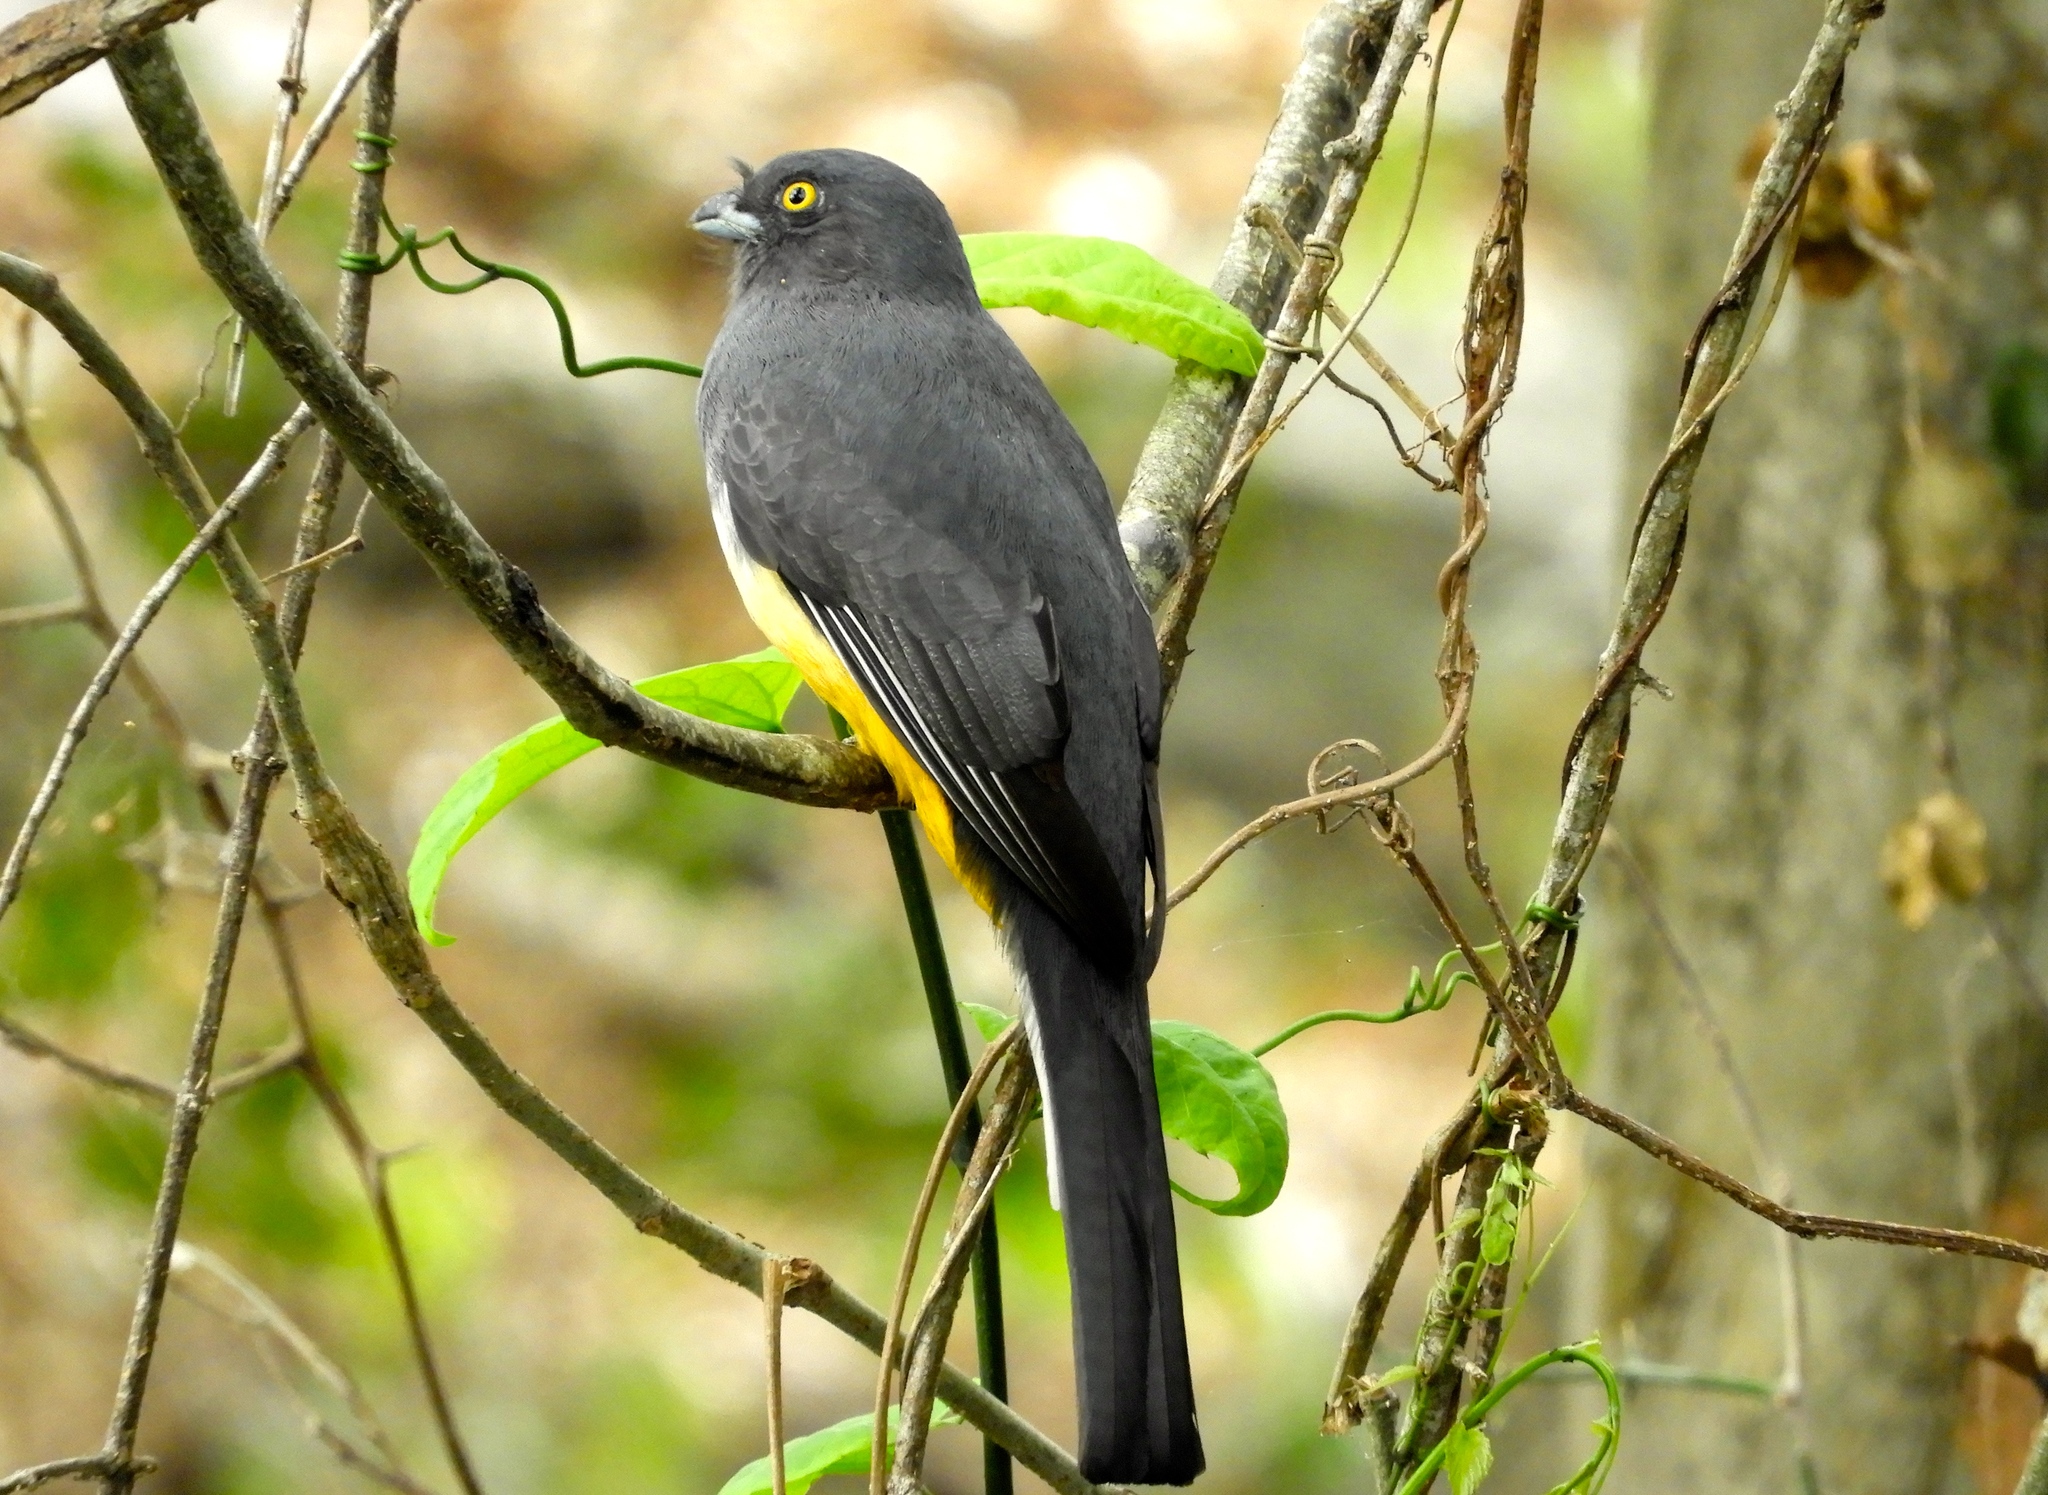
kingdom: Animalia
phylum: Chordata
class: Aves
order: Trogoniformes
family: Trogonidae
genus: Trogon
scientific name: Trogon citreolus
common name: Citreoline trogon
